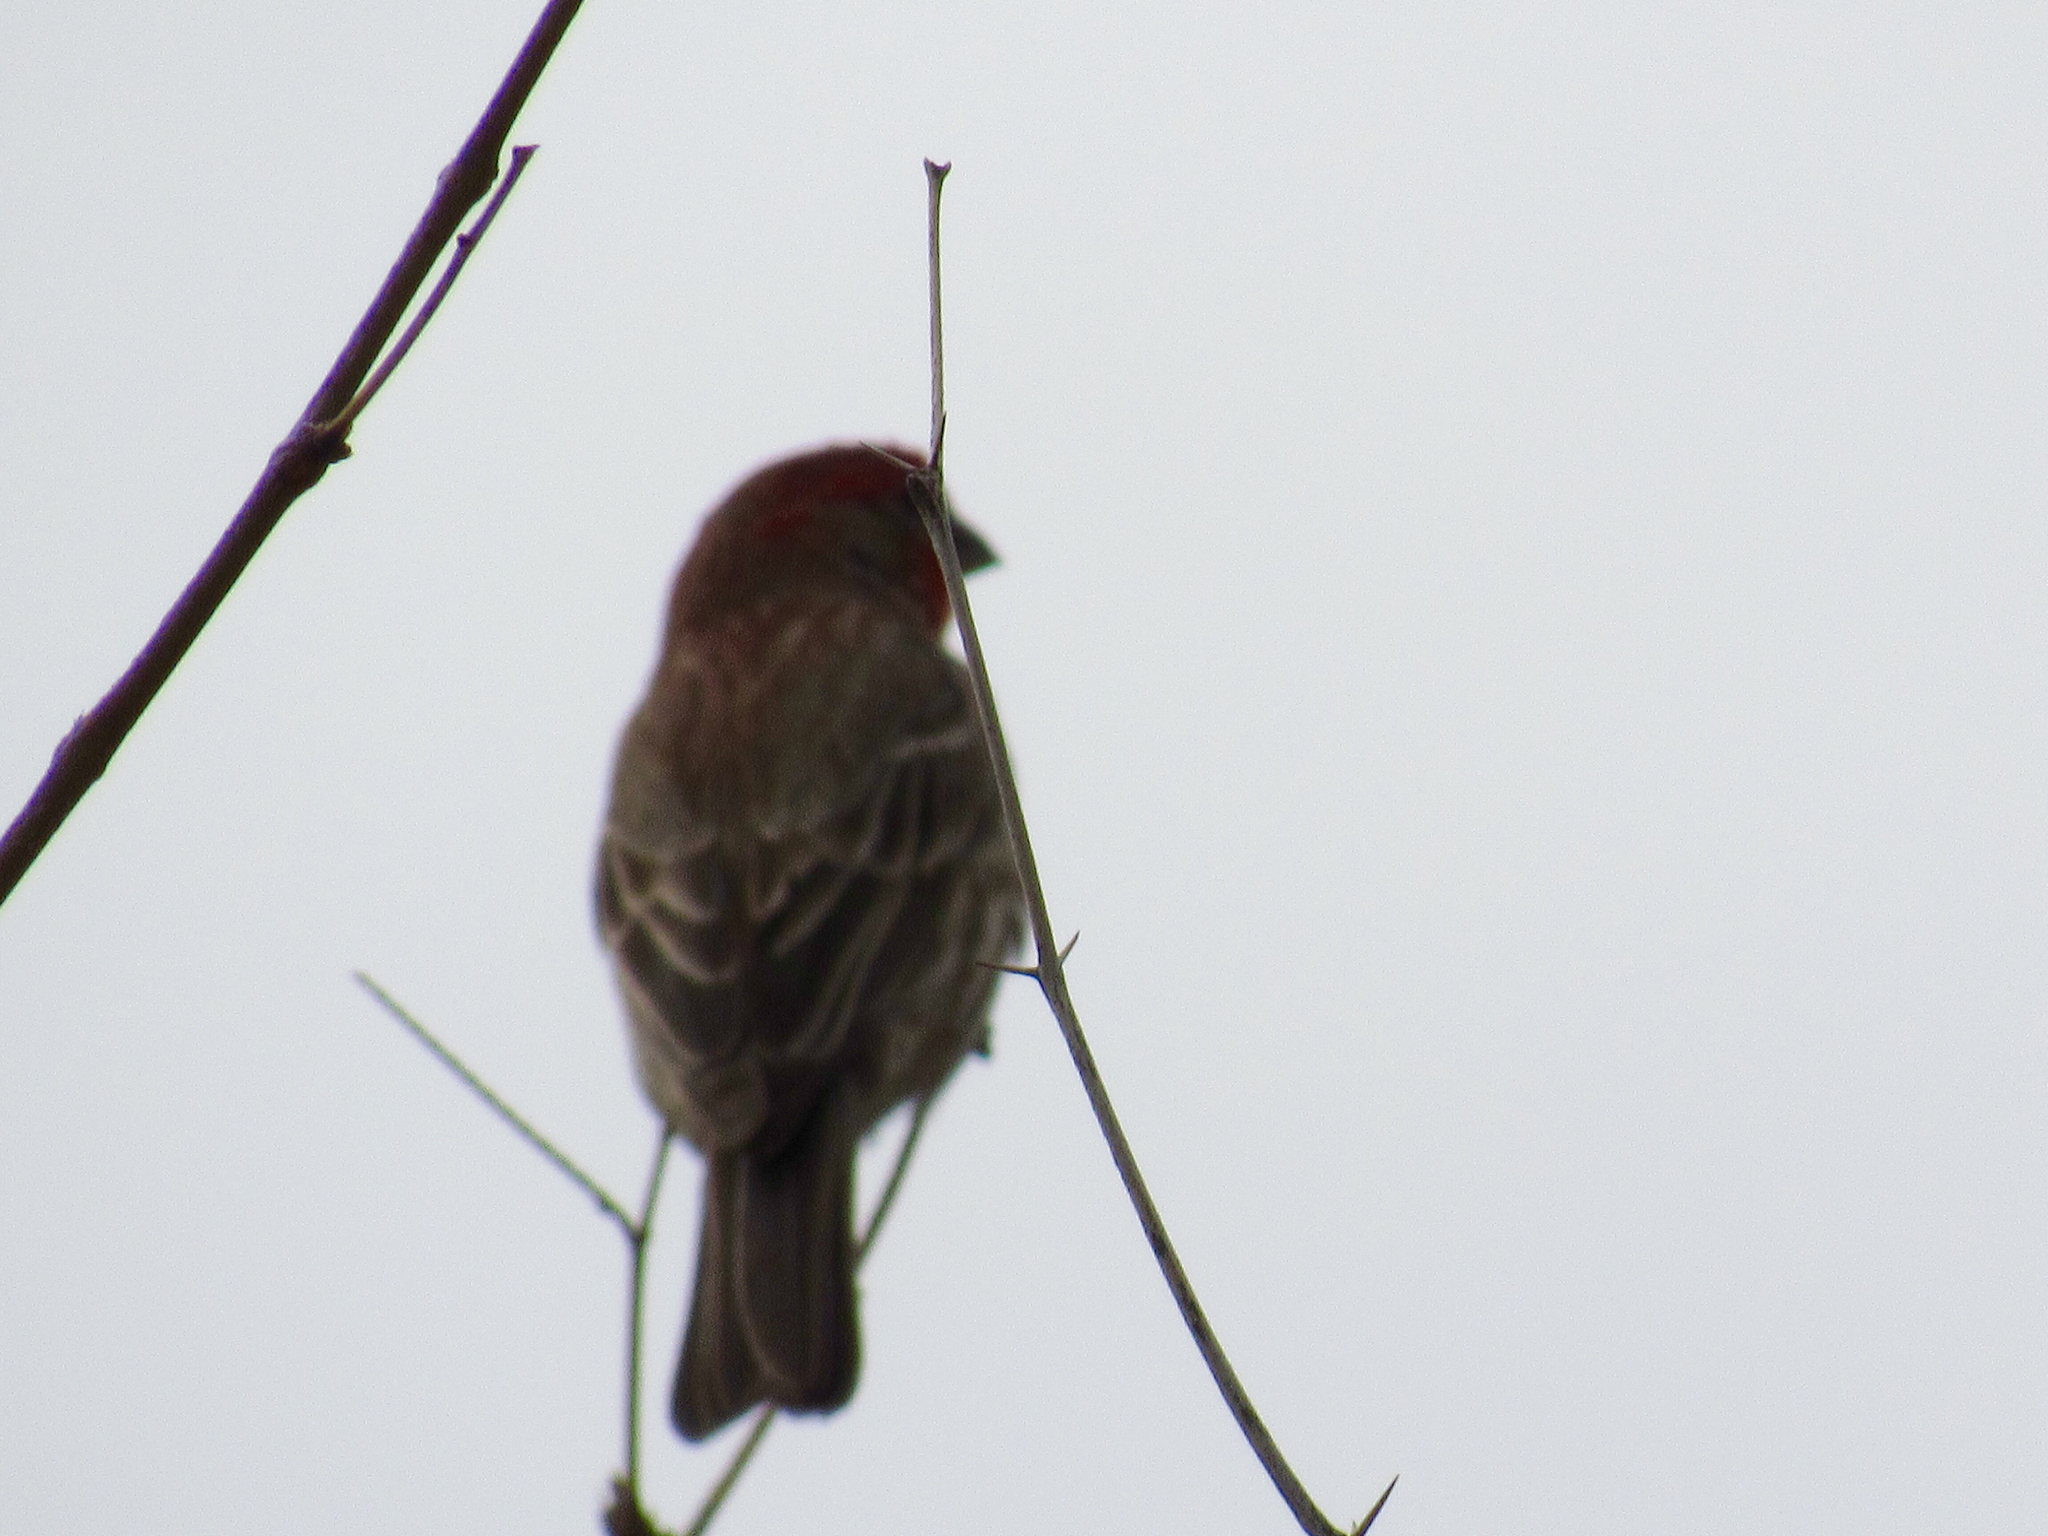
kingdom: Animalia
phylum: Chordata
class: Aves
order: Passeriformes
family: Fringillidae
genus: Haemorhous
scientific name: Haemorhous mexicanus
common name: House finch
